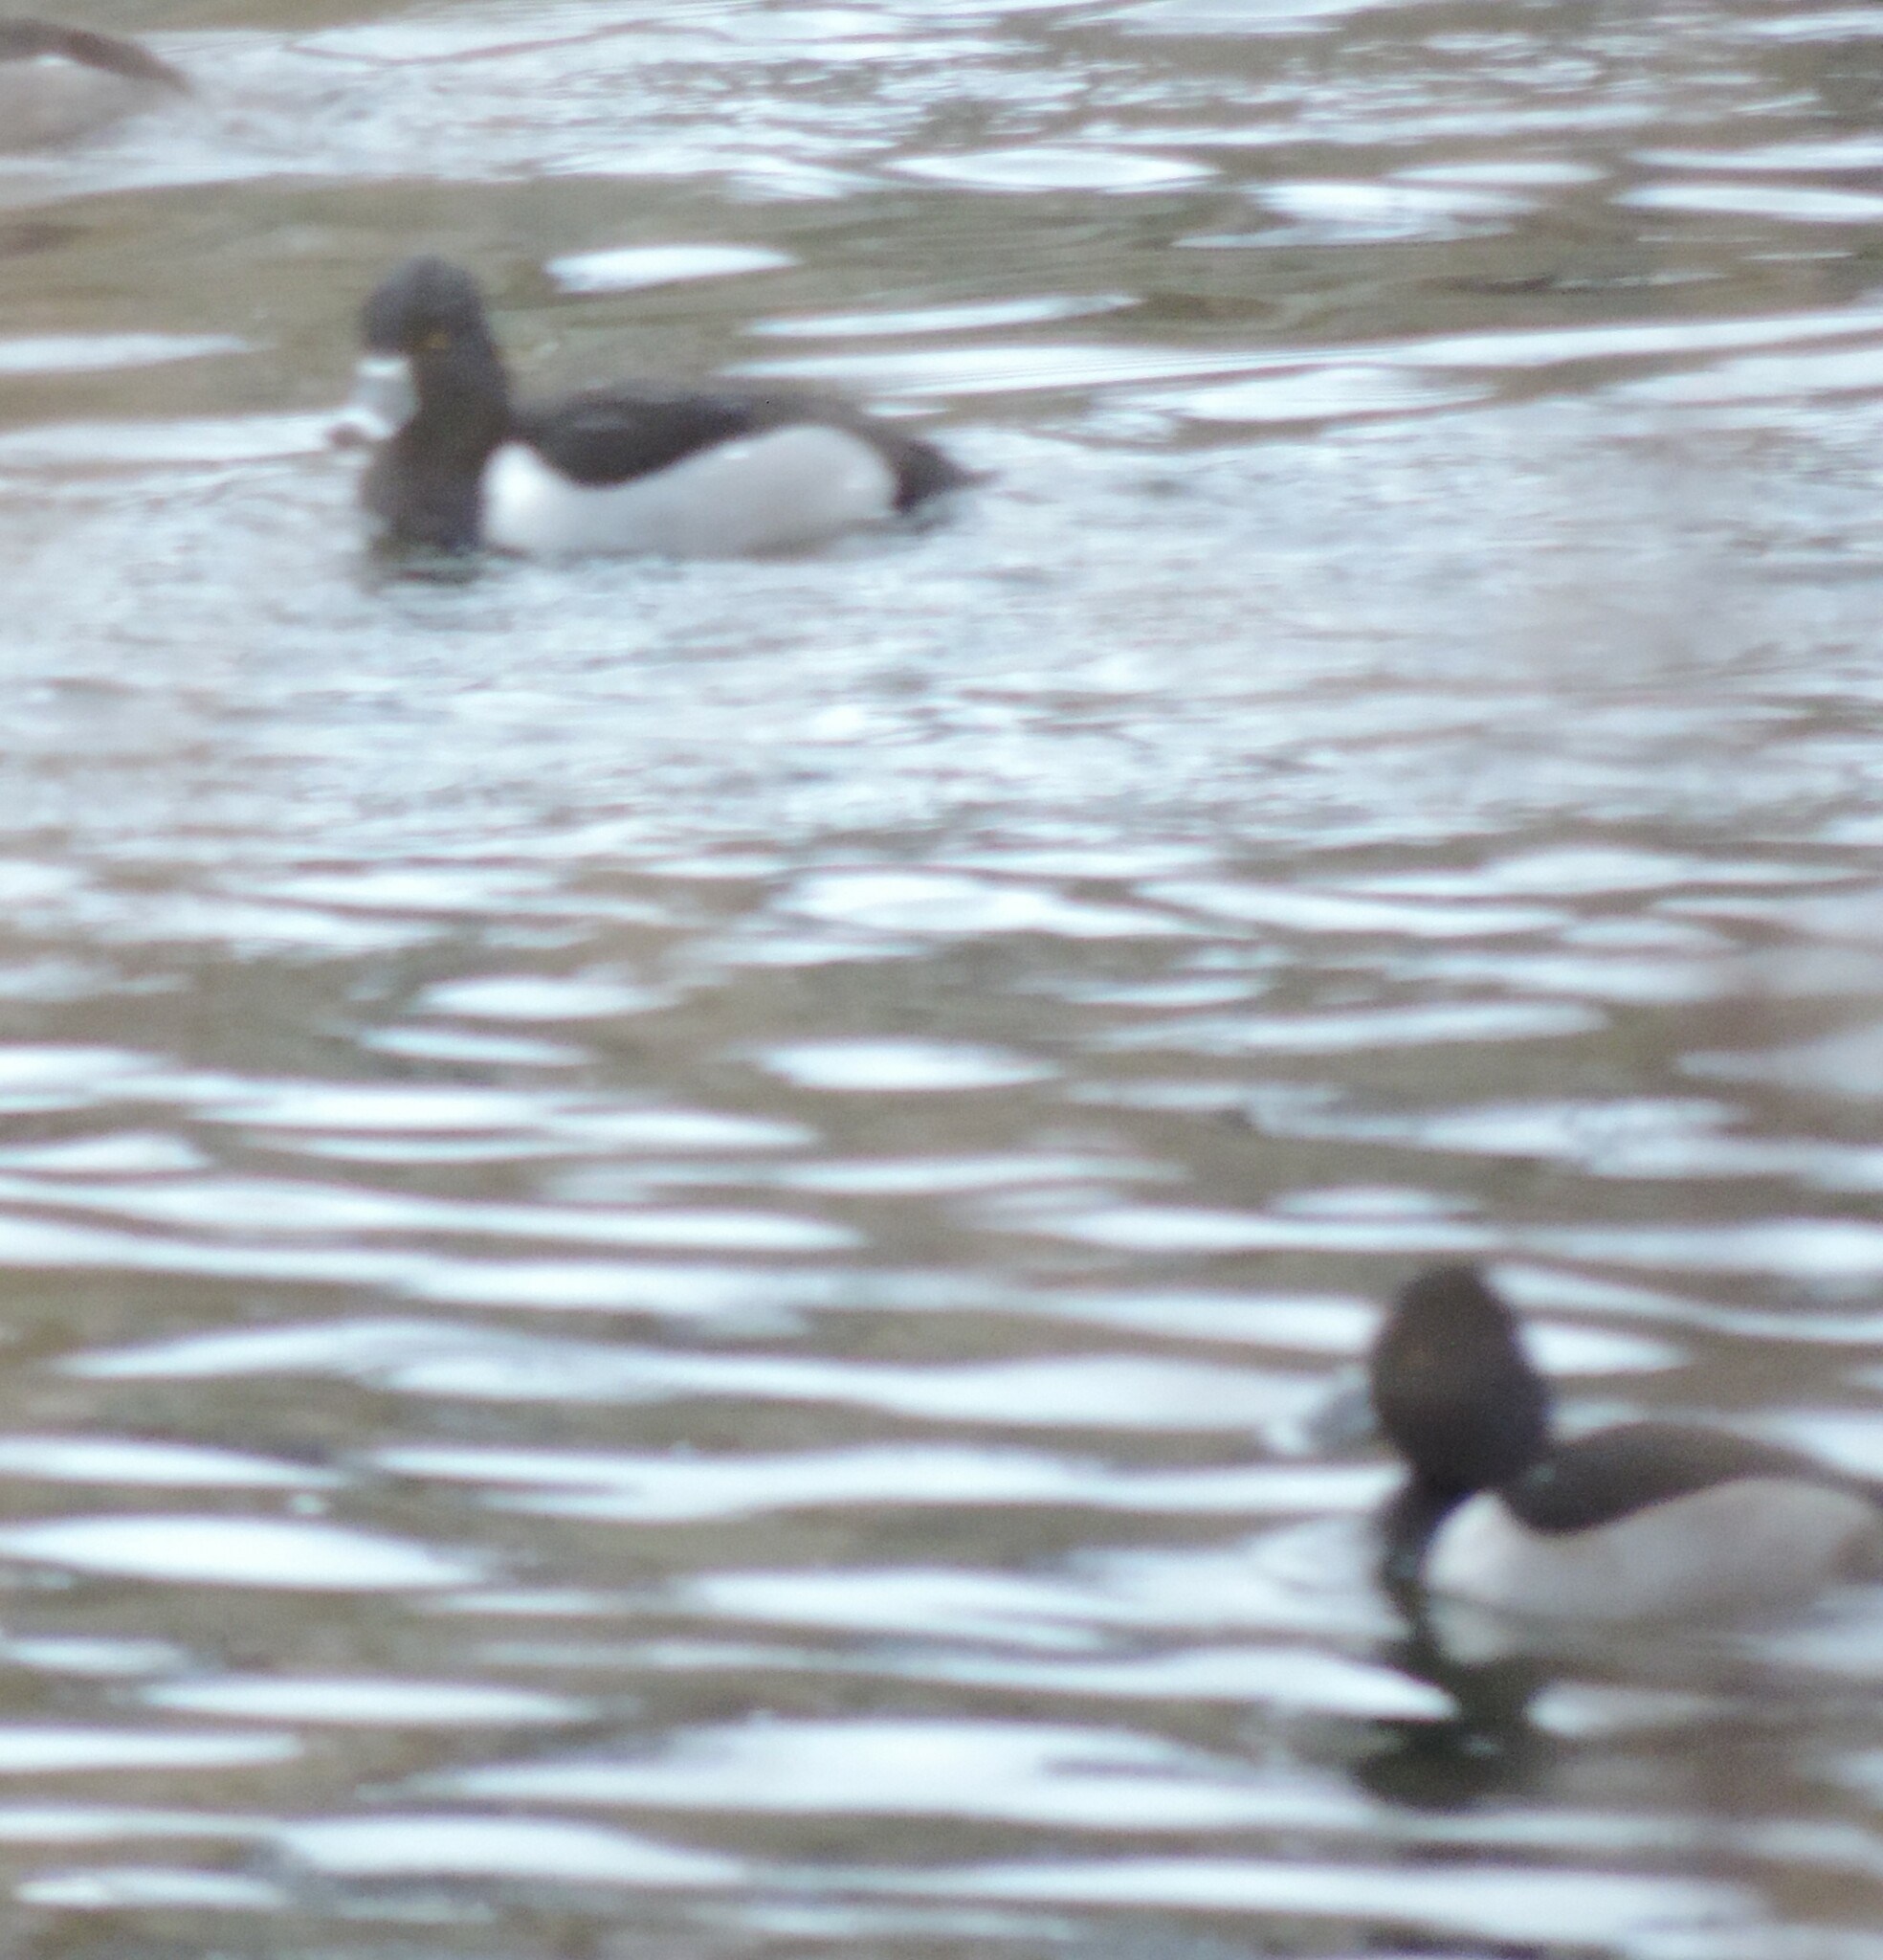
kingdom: Animalia
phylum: Chordata
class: Aves
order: Anseriformes
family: Anatidae
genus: Aythya
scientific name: Aythya collaris
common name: Ring-necked duck
